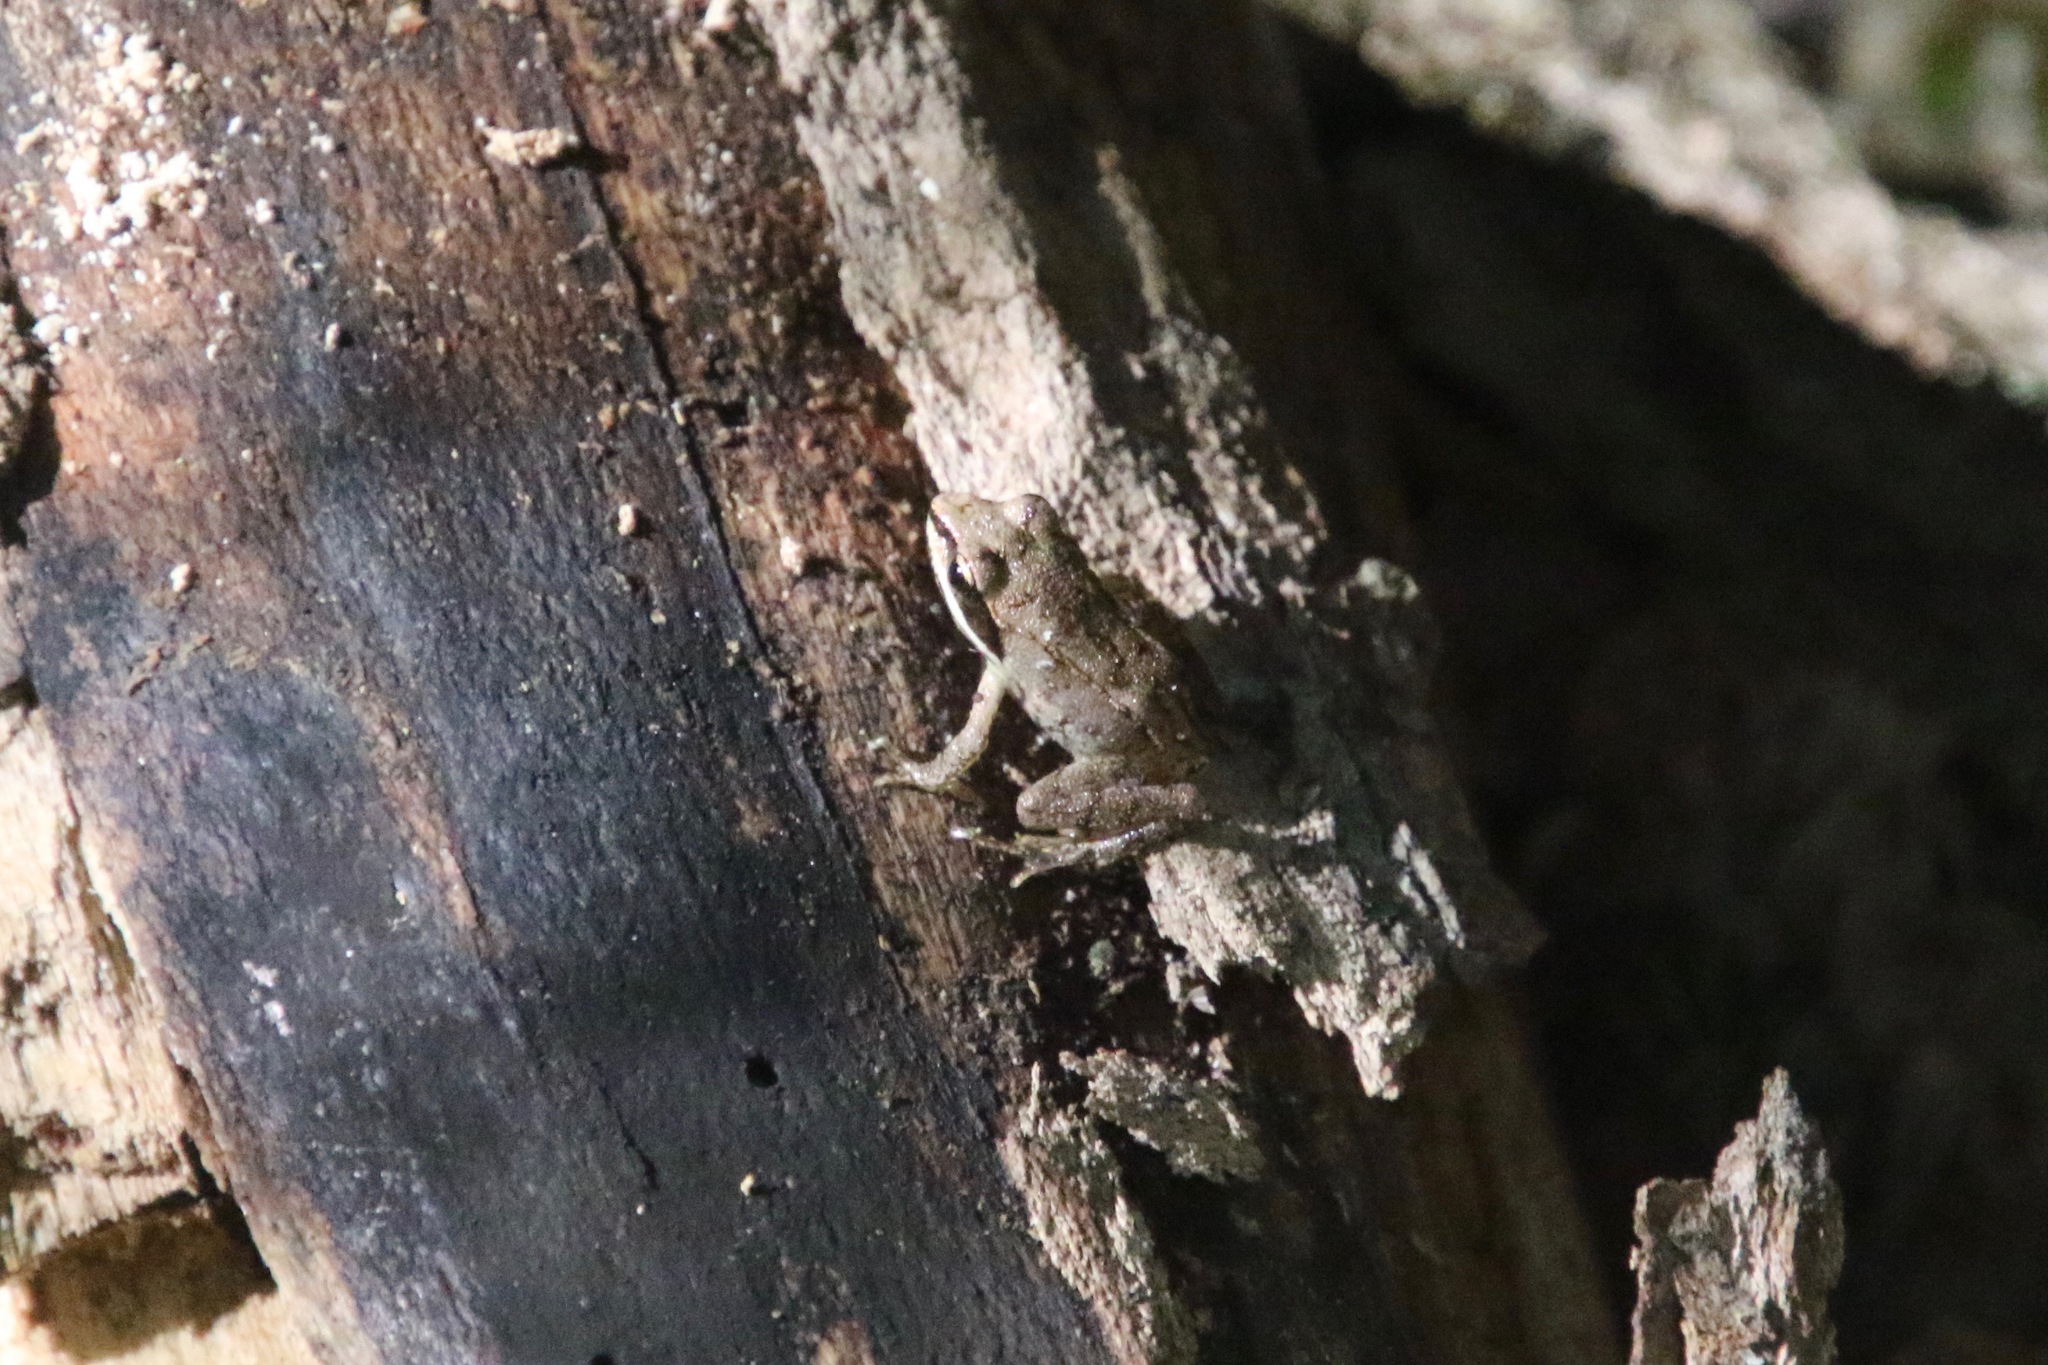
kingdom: Animalia
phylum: Chordata
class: Amphibia
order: Anura
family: Ranidae
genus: Lithobates
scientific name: Lithobates sylvaticus
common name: Wood frog
